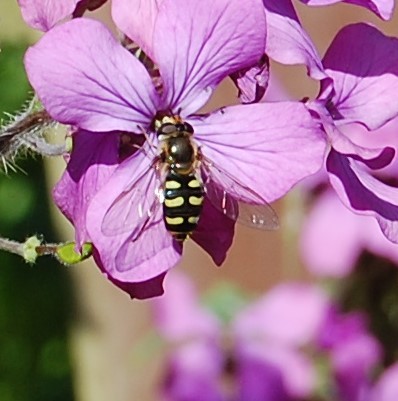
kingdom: Animalia
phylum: Arthropoda
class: Insecta
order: Diptera
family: Syrphidae
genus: Eupeodes
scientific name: Eupeodes
